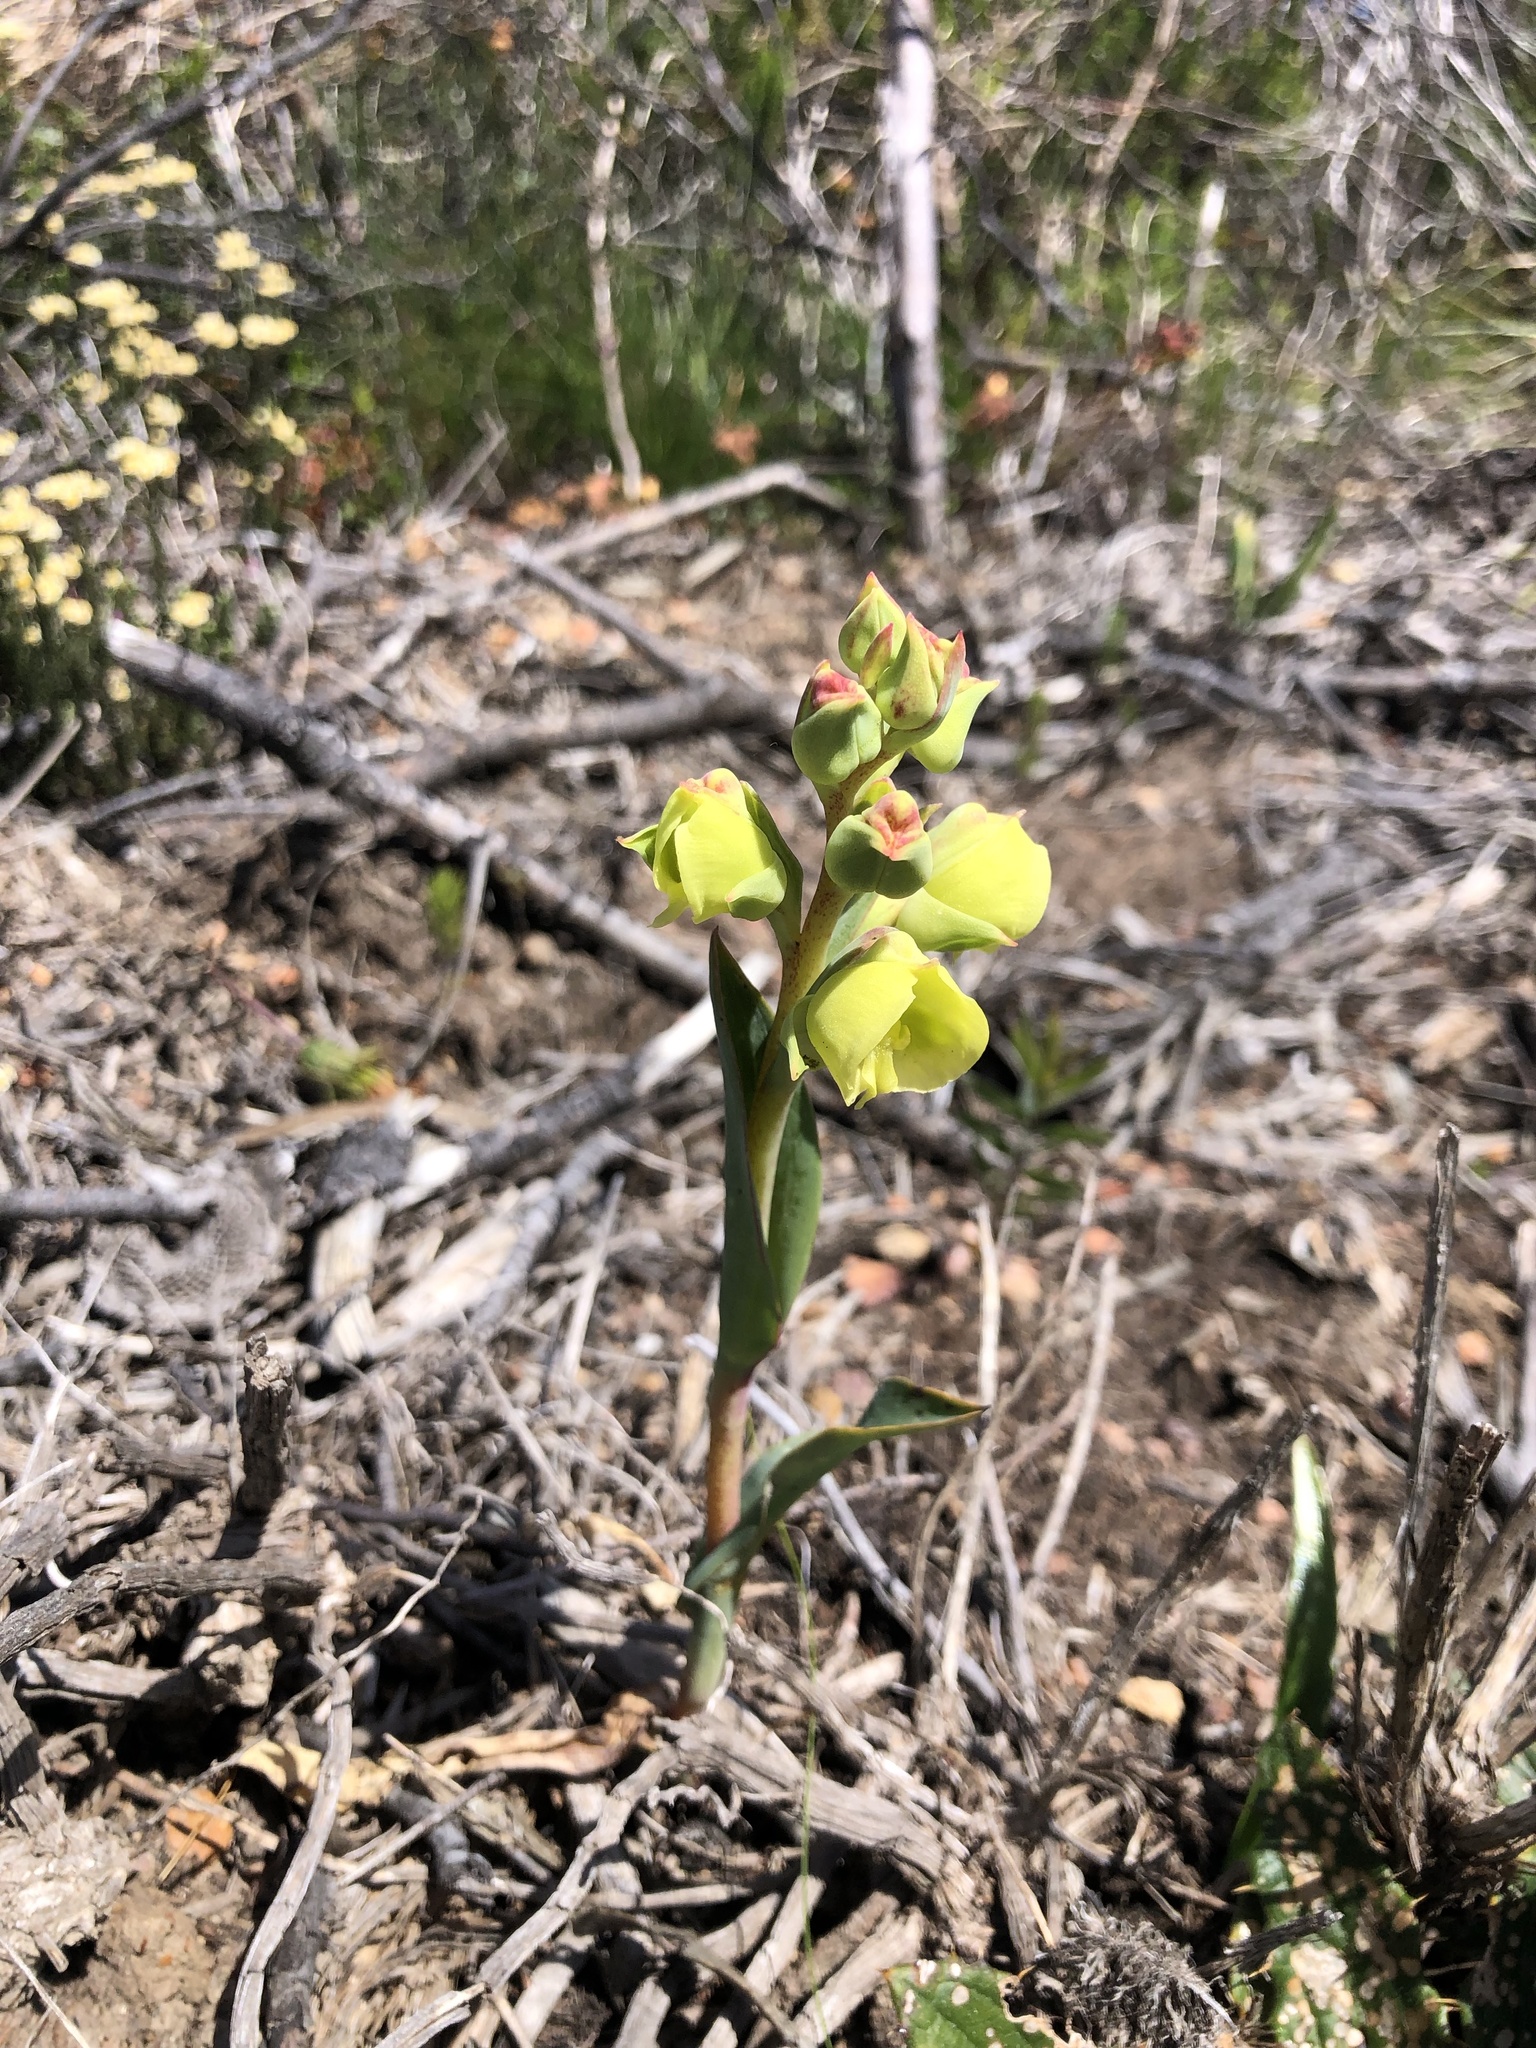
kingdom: Plantae
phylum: Tracheophyta
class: Liliopsida
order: Asparagales
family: Orchidaceae
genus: Pterygodium
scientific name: Pterygodium catholicum
